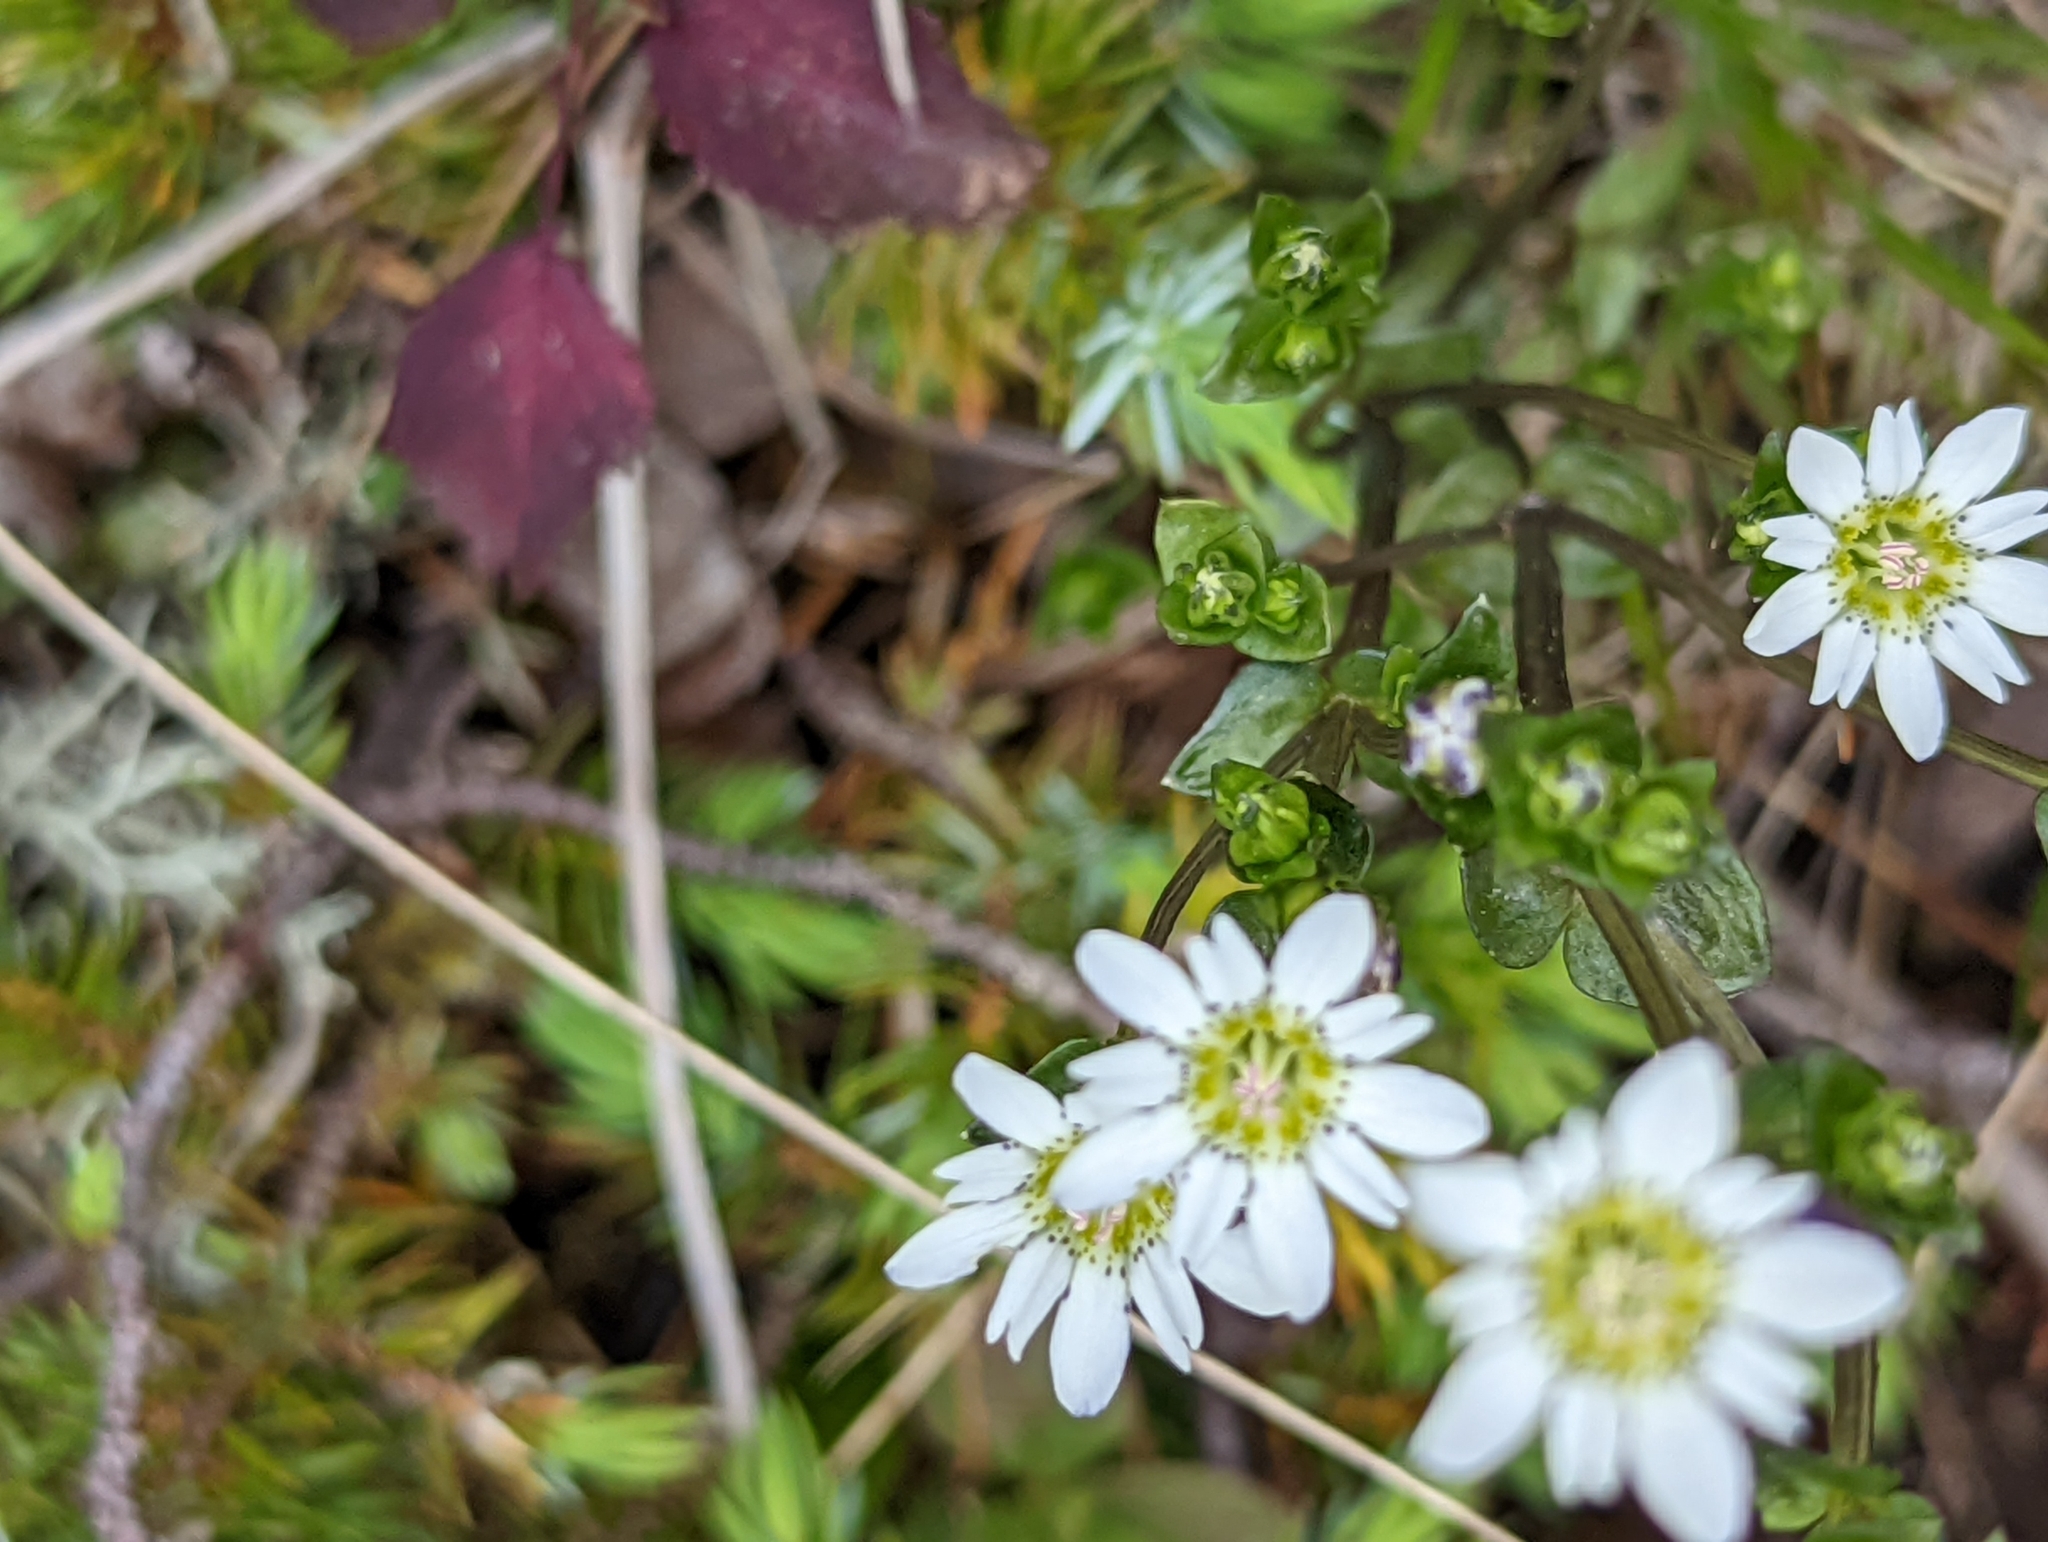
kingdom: Plantae
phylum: Tracheophyta
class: Magnoliopsida
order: Gentianales
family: Gentianaceae
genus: Gentiana
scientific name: Gentiana douglasiana
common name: Swamp gentian
